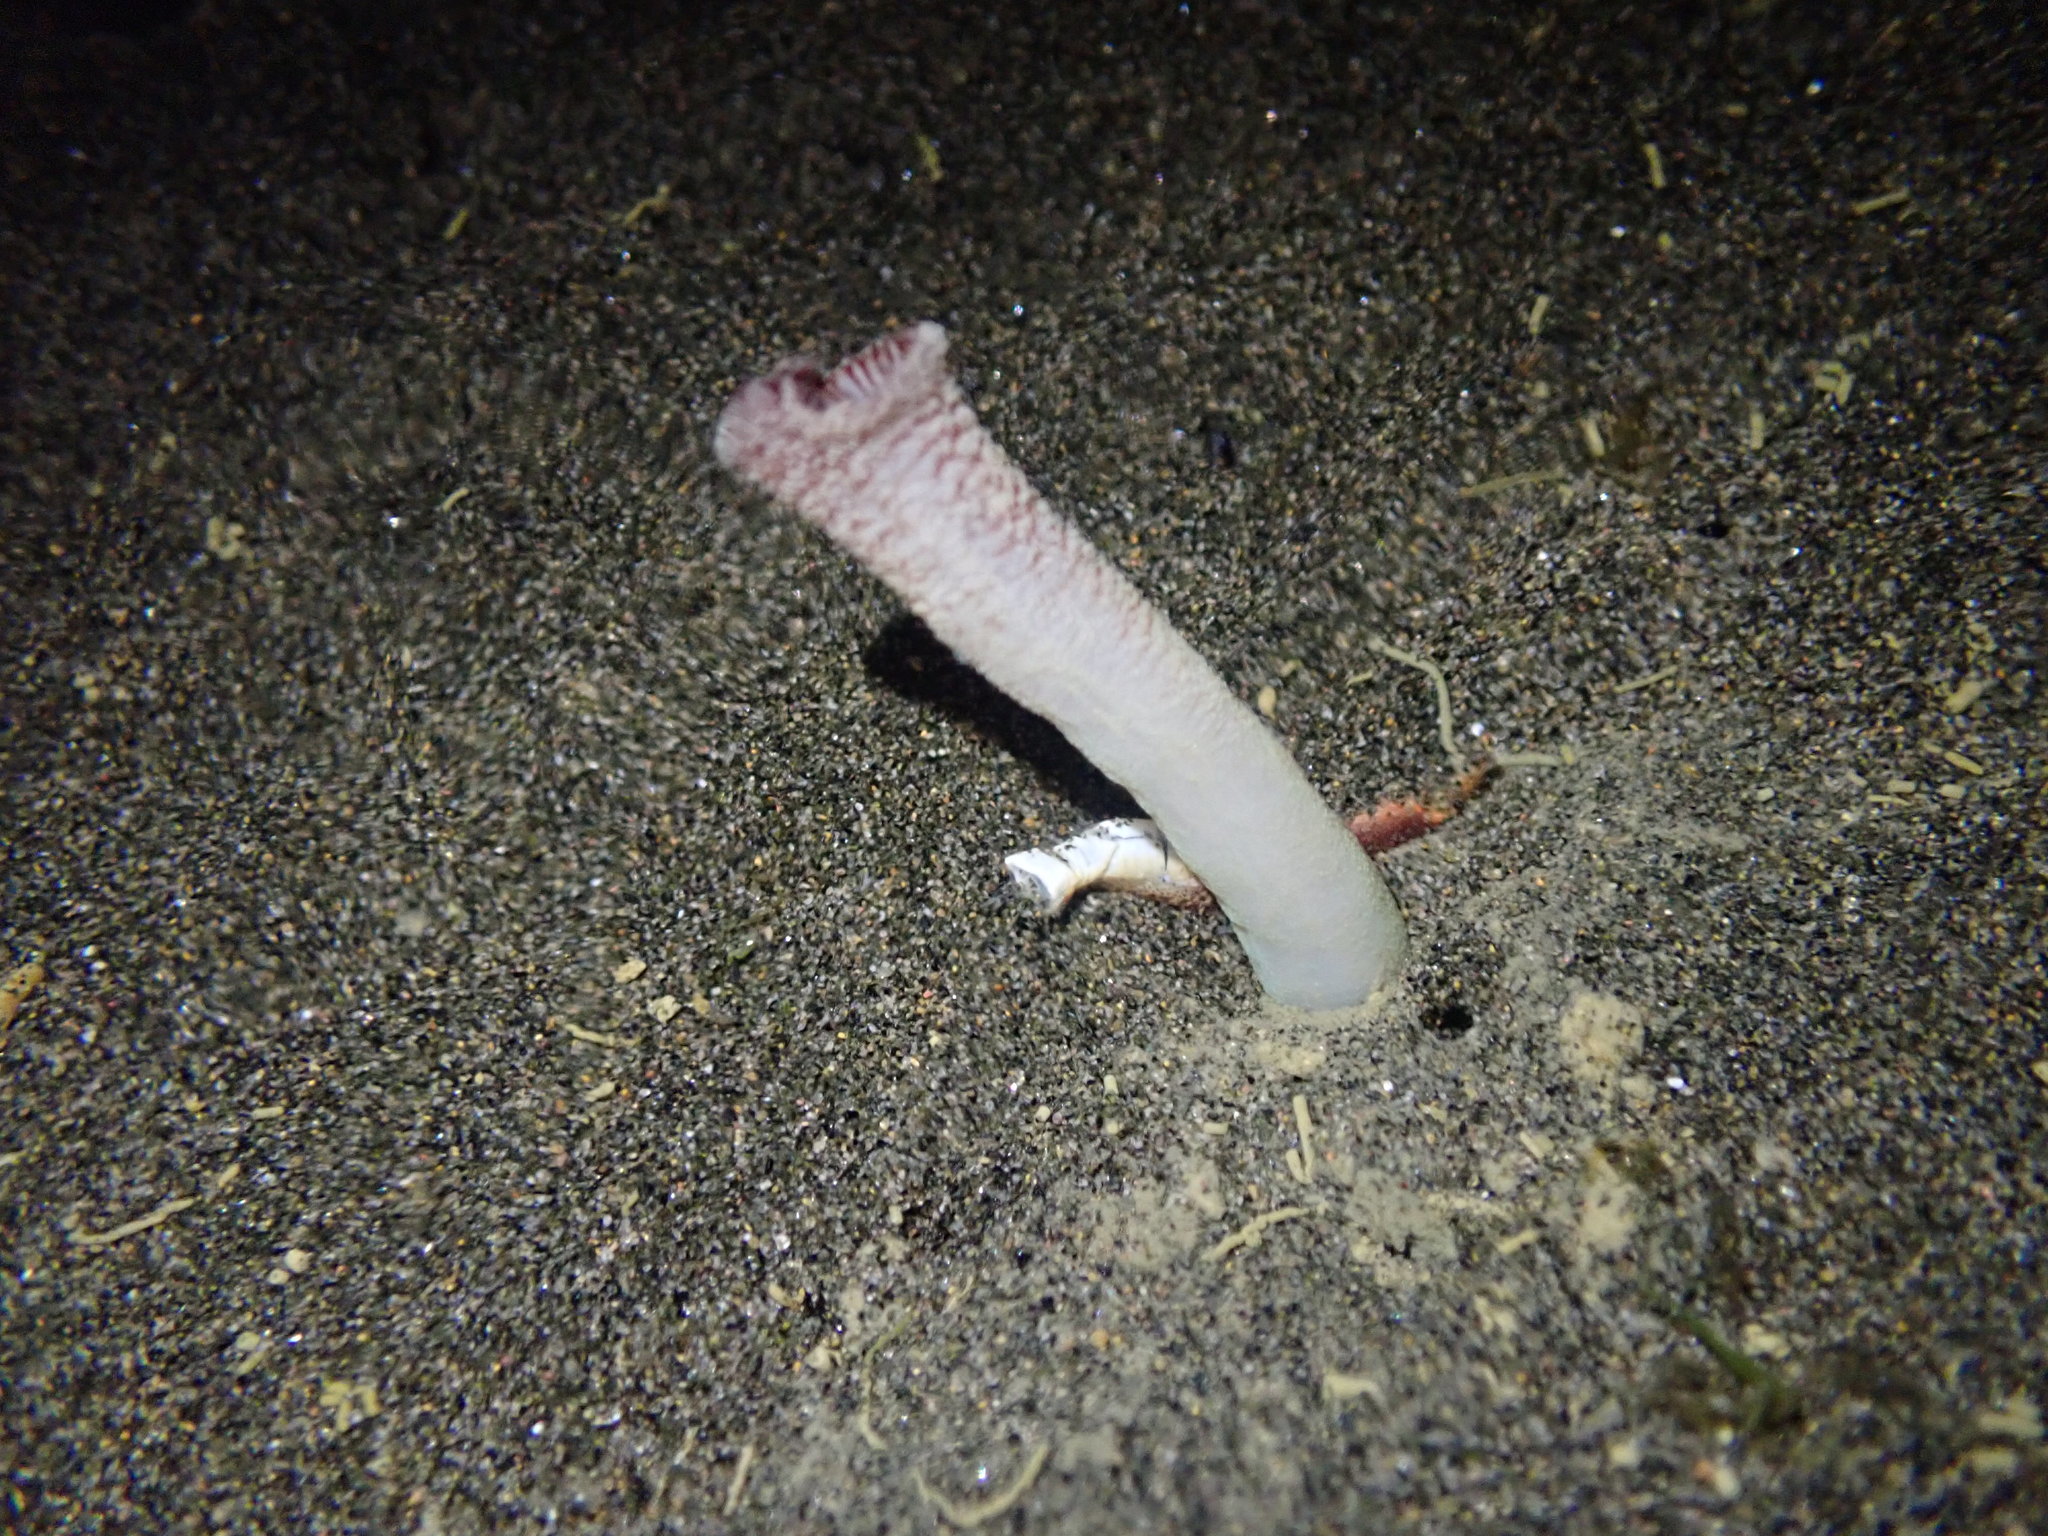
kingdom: Animalia
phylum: Mollusca
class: Bivalvia
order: Myida
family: Pholadidae
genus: Barnea
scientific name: Barnea similis
